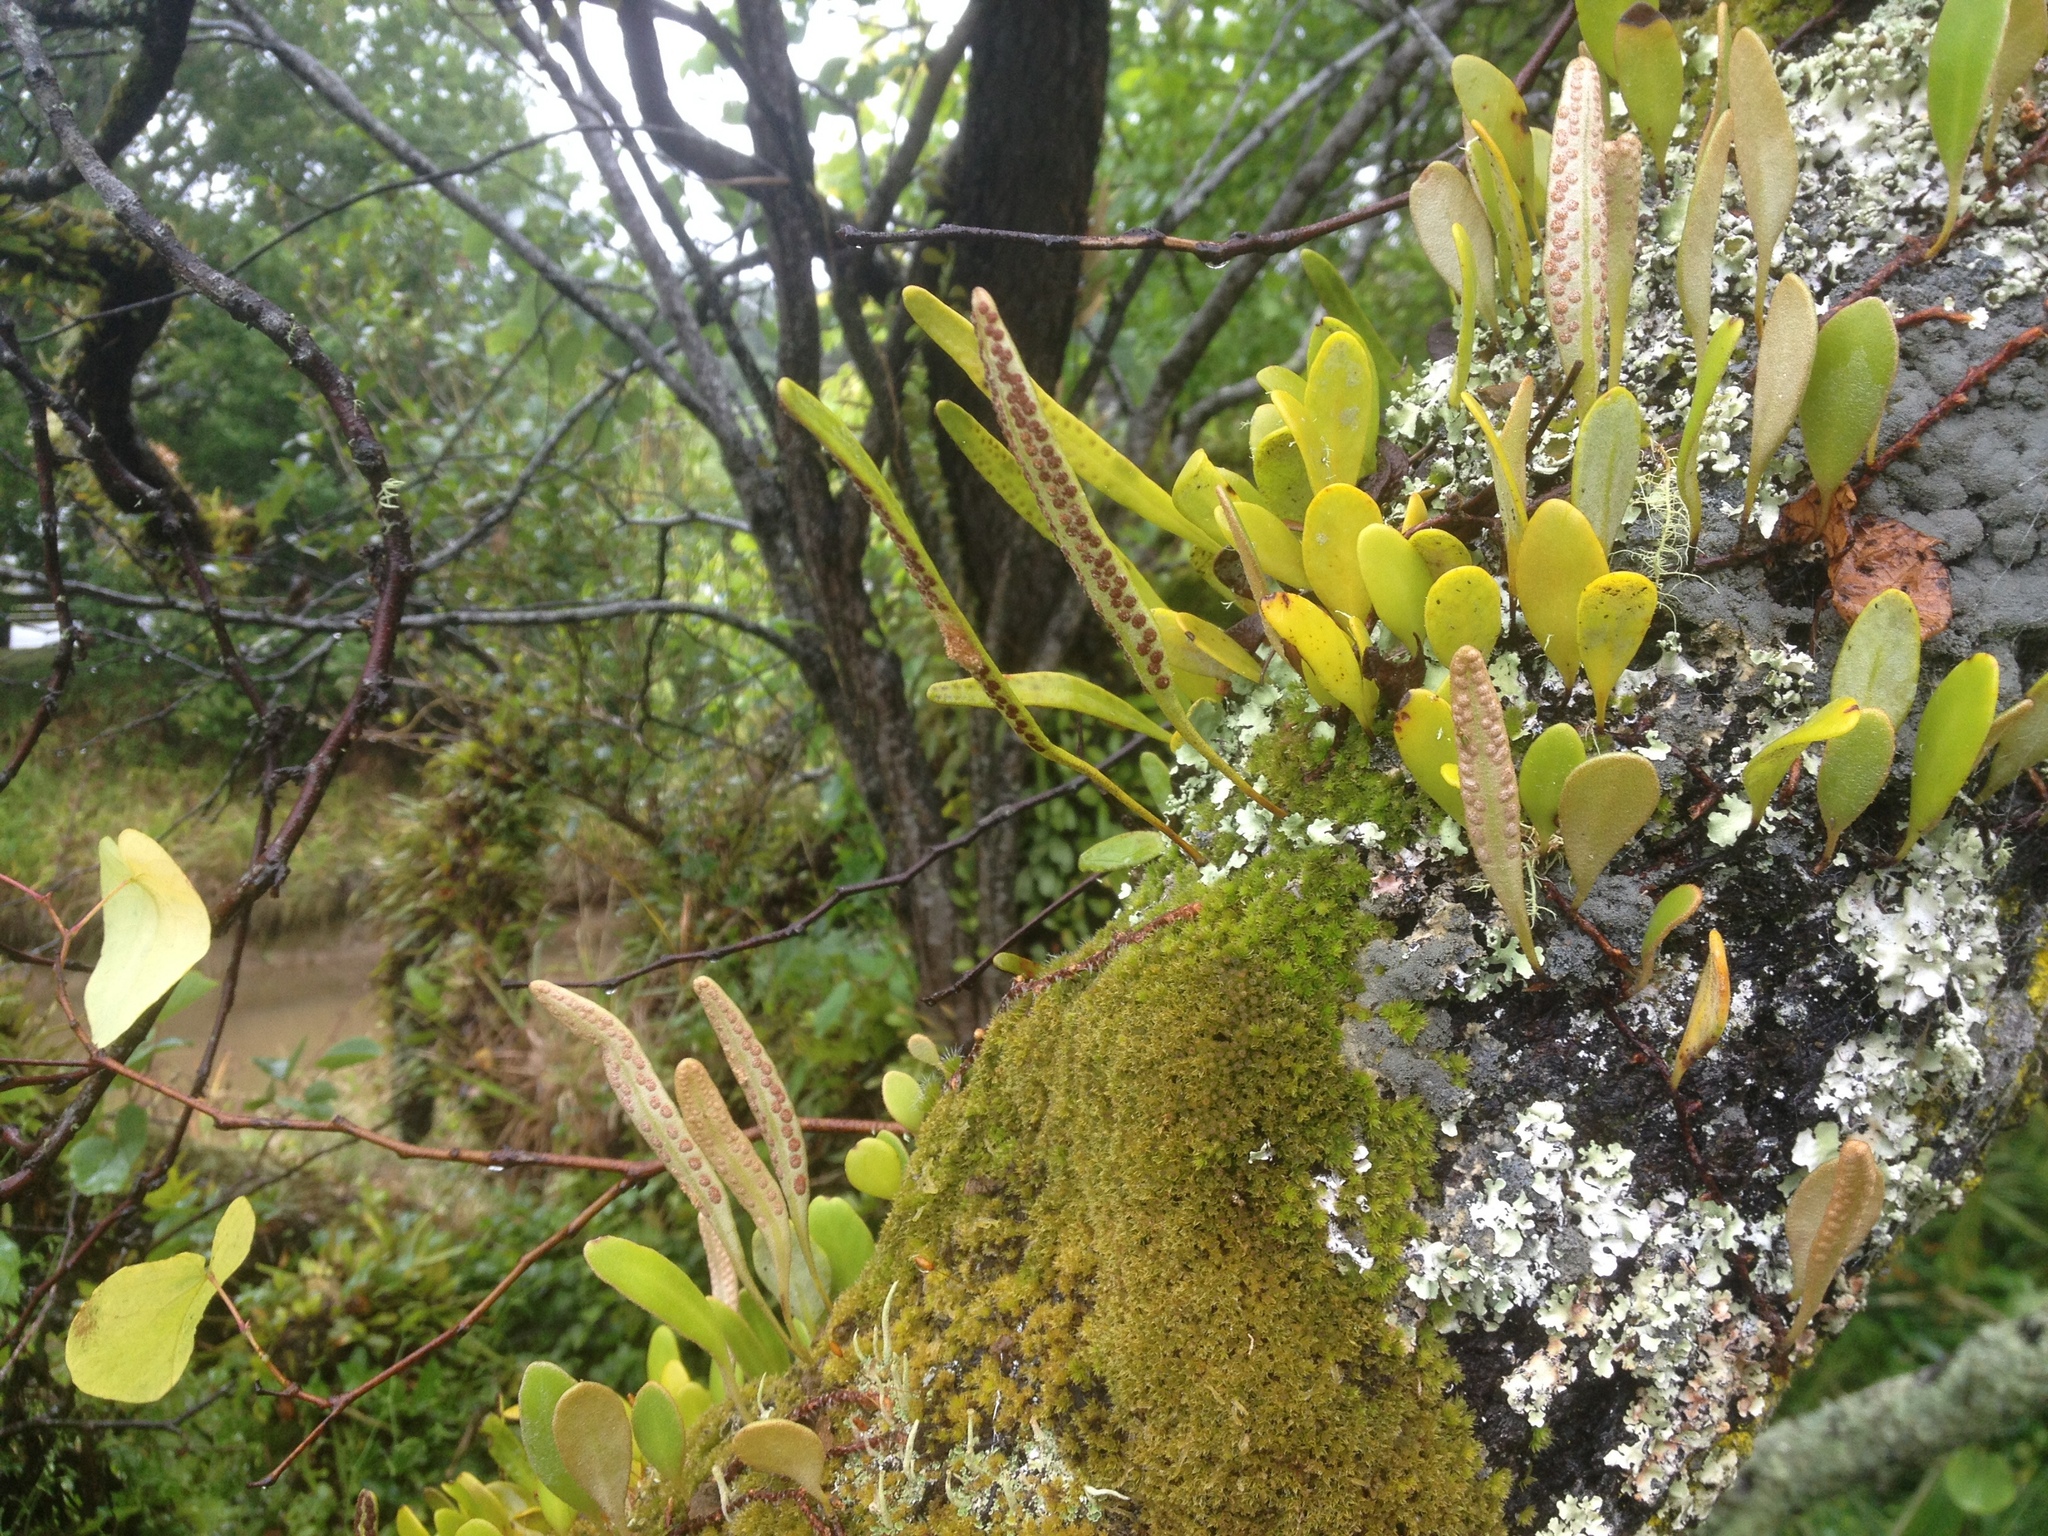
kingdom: Plantae
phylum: Tracheophyta
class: Polypodiopsida
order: Polypodiales
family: Polypodiaceae
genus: Pyrrosia
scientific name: Pyrrosia eleagnifolia
